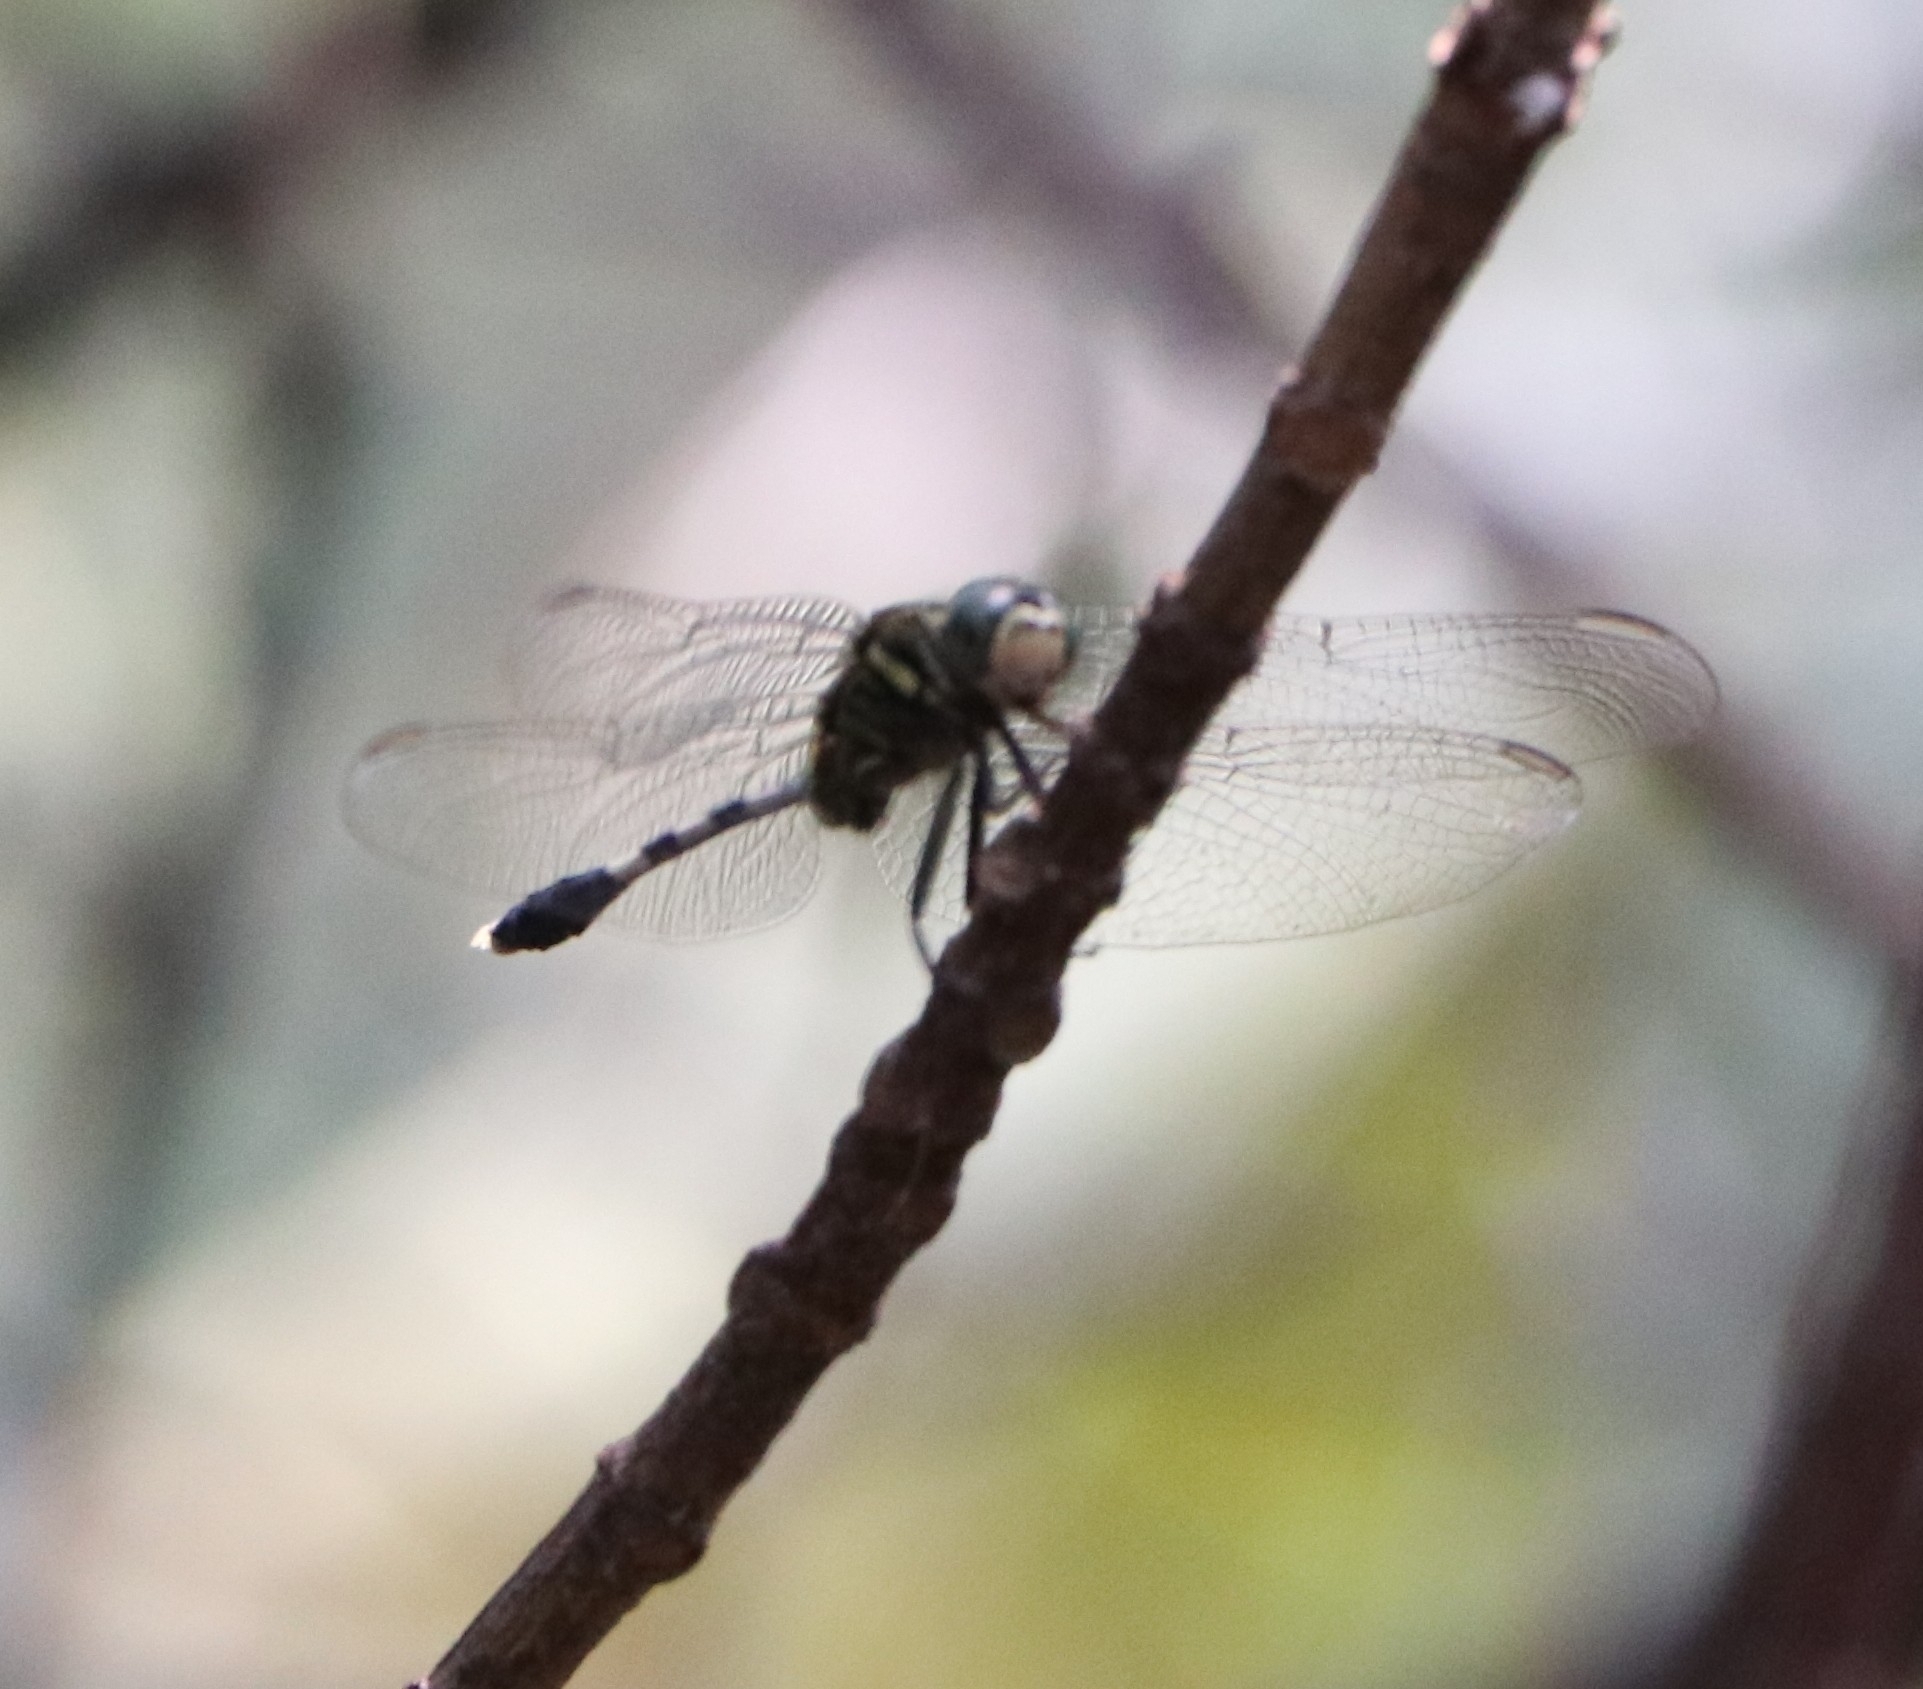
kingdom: Animalia
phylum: Arthropoda
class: Insecta
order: Odonata
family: Libellulidae
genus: Orthetrum
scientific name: Orthetrum sabina
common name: Slender skimmer
